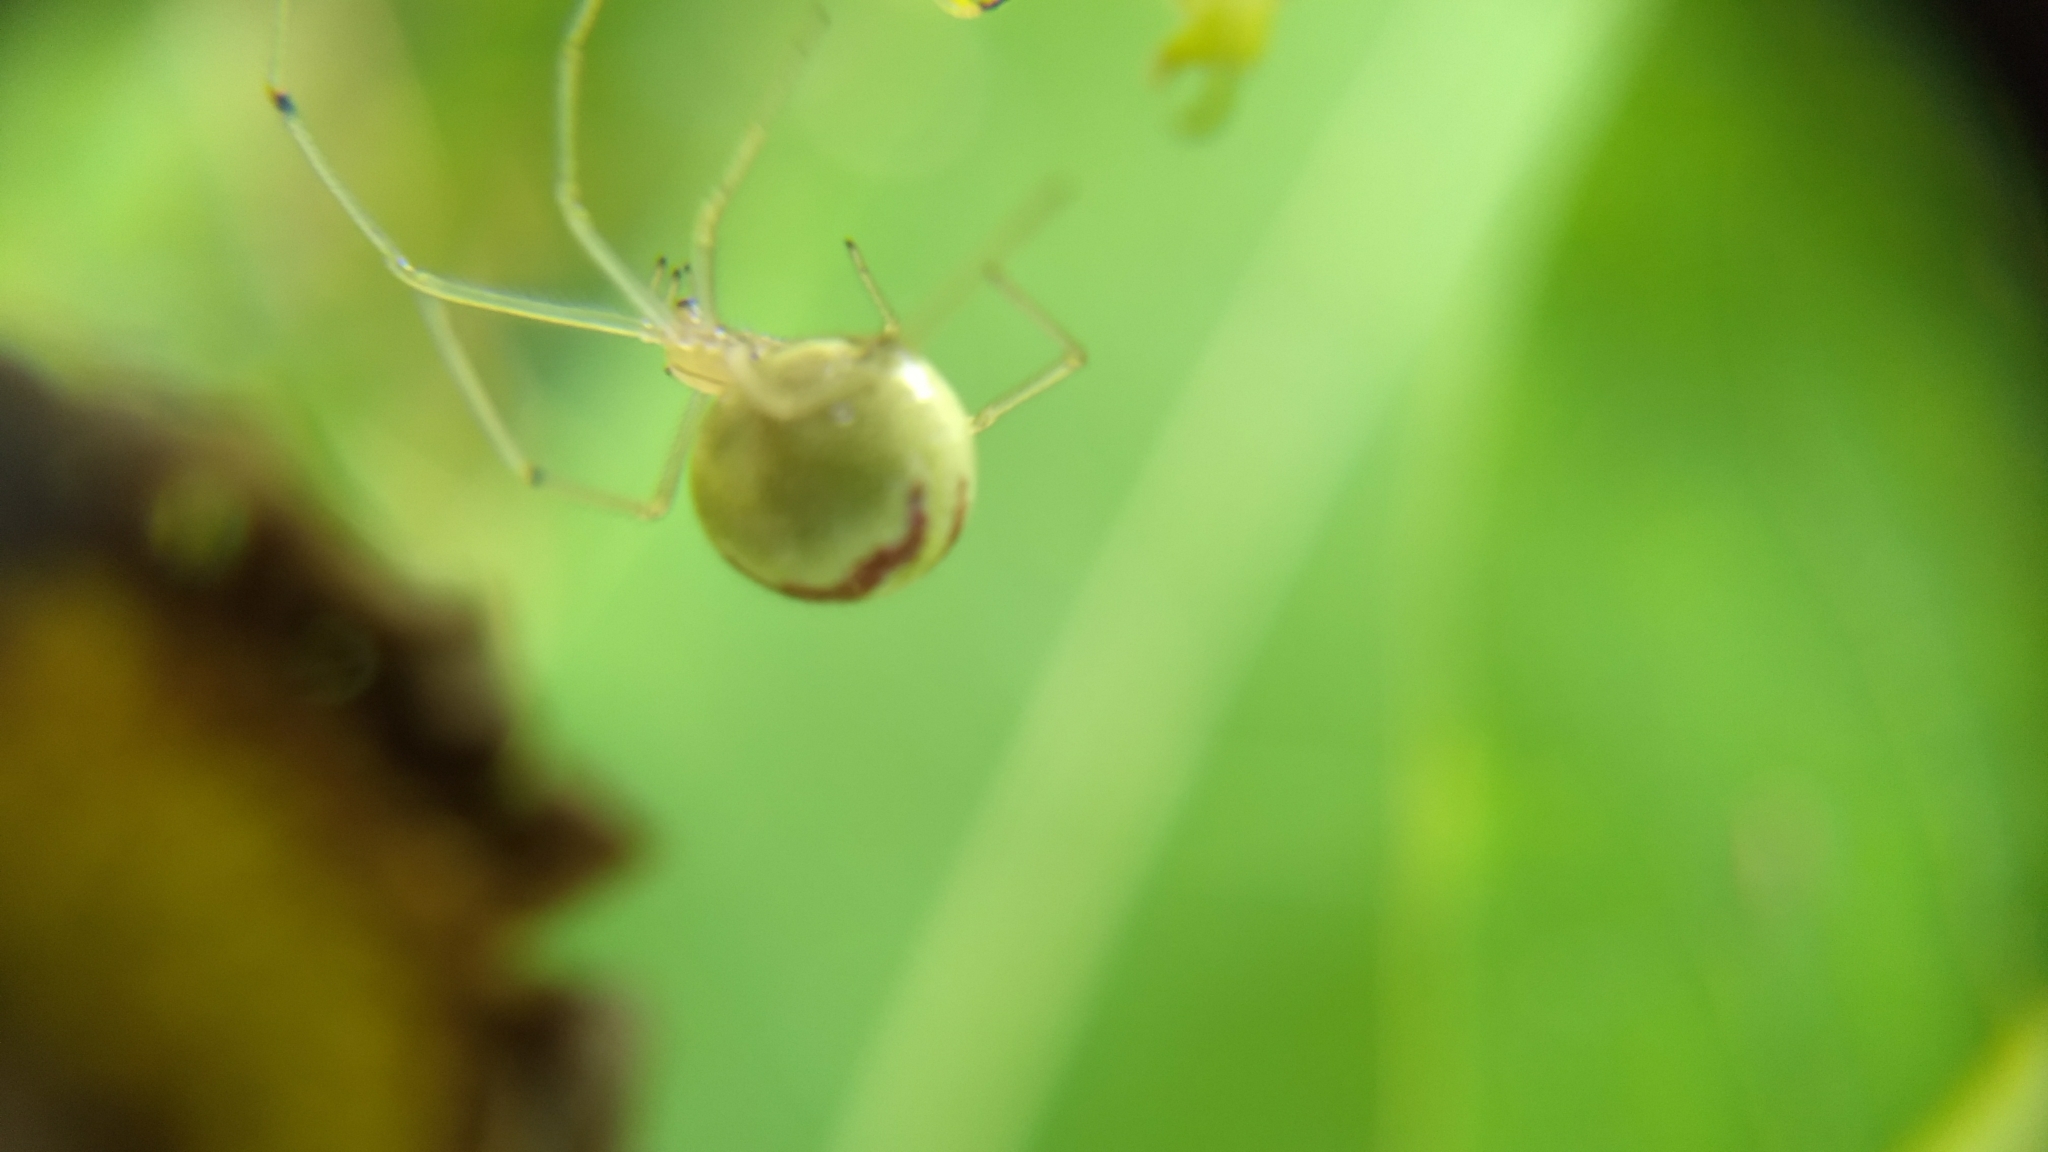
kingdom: Animalia
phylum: Arthropoda
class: Arachnida
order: Araneae
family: Theridiidae
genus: Enoplognatha
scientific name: Enoplognatha ovata
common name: Common candy-striped spider
